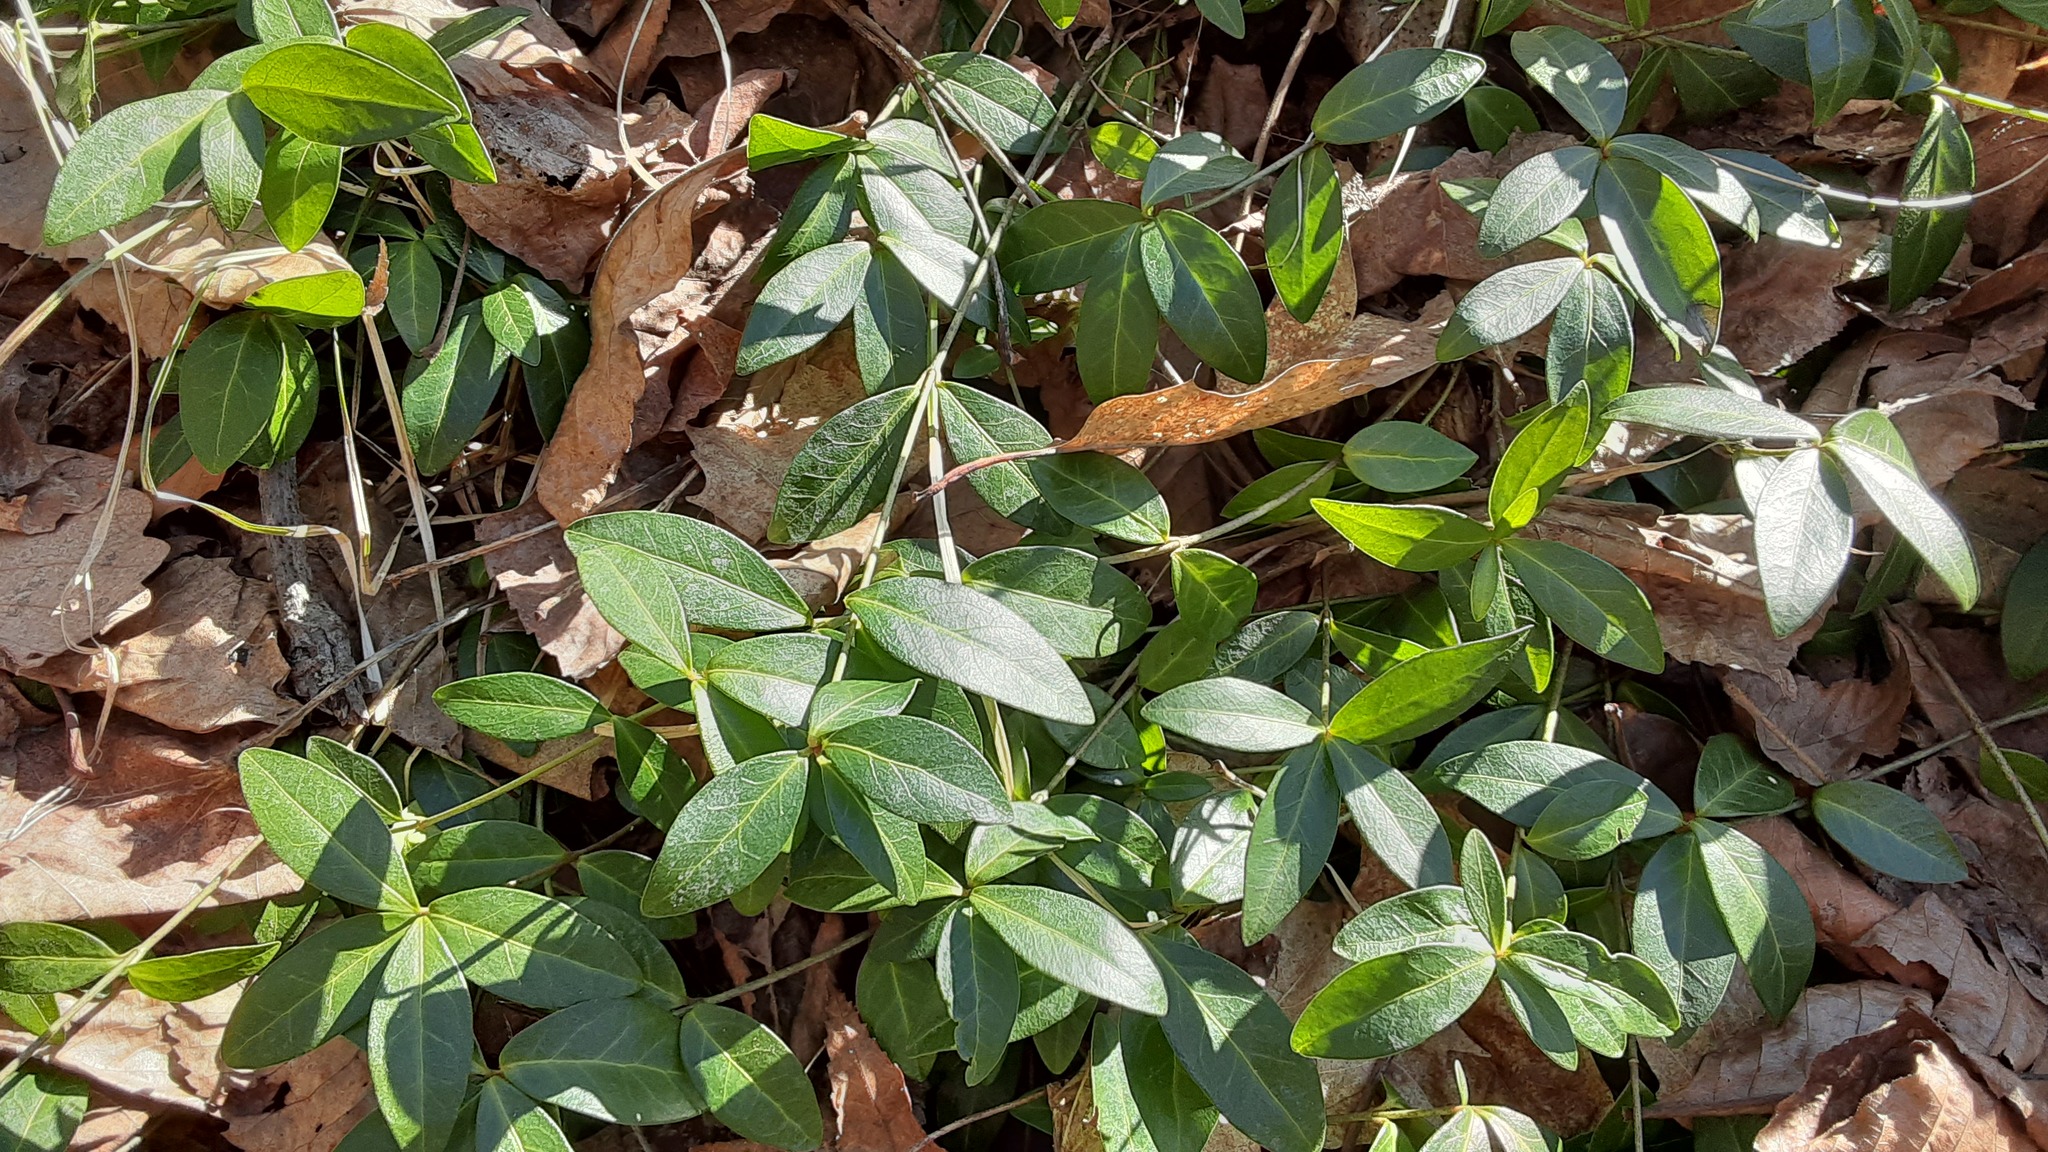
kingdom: Plantae
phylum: Tracheophyta
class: Magnoliopsida
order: Gentianales
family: Apocynaceae
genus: Vinca
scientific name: Vinca minor
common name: Lesser periwinkle
